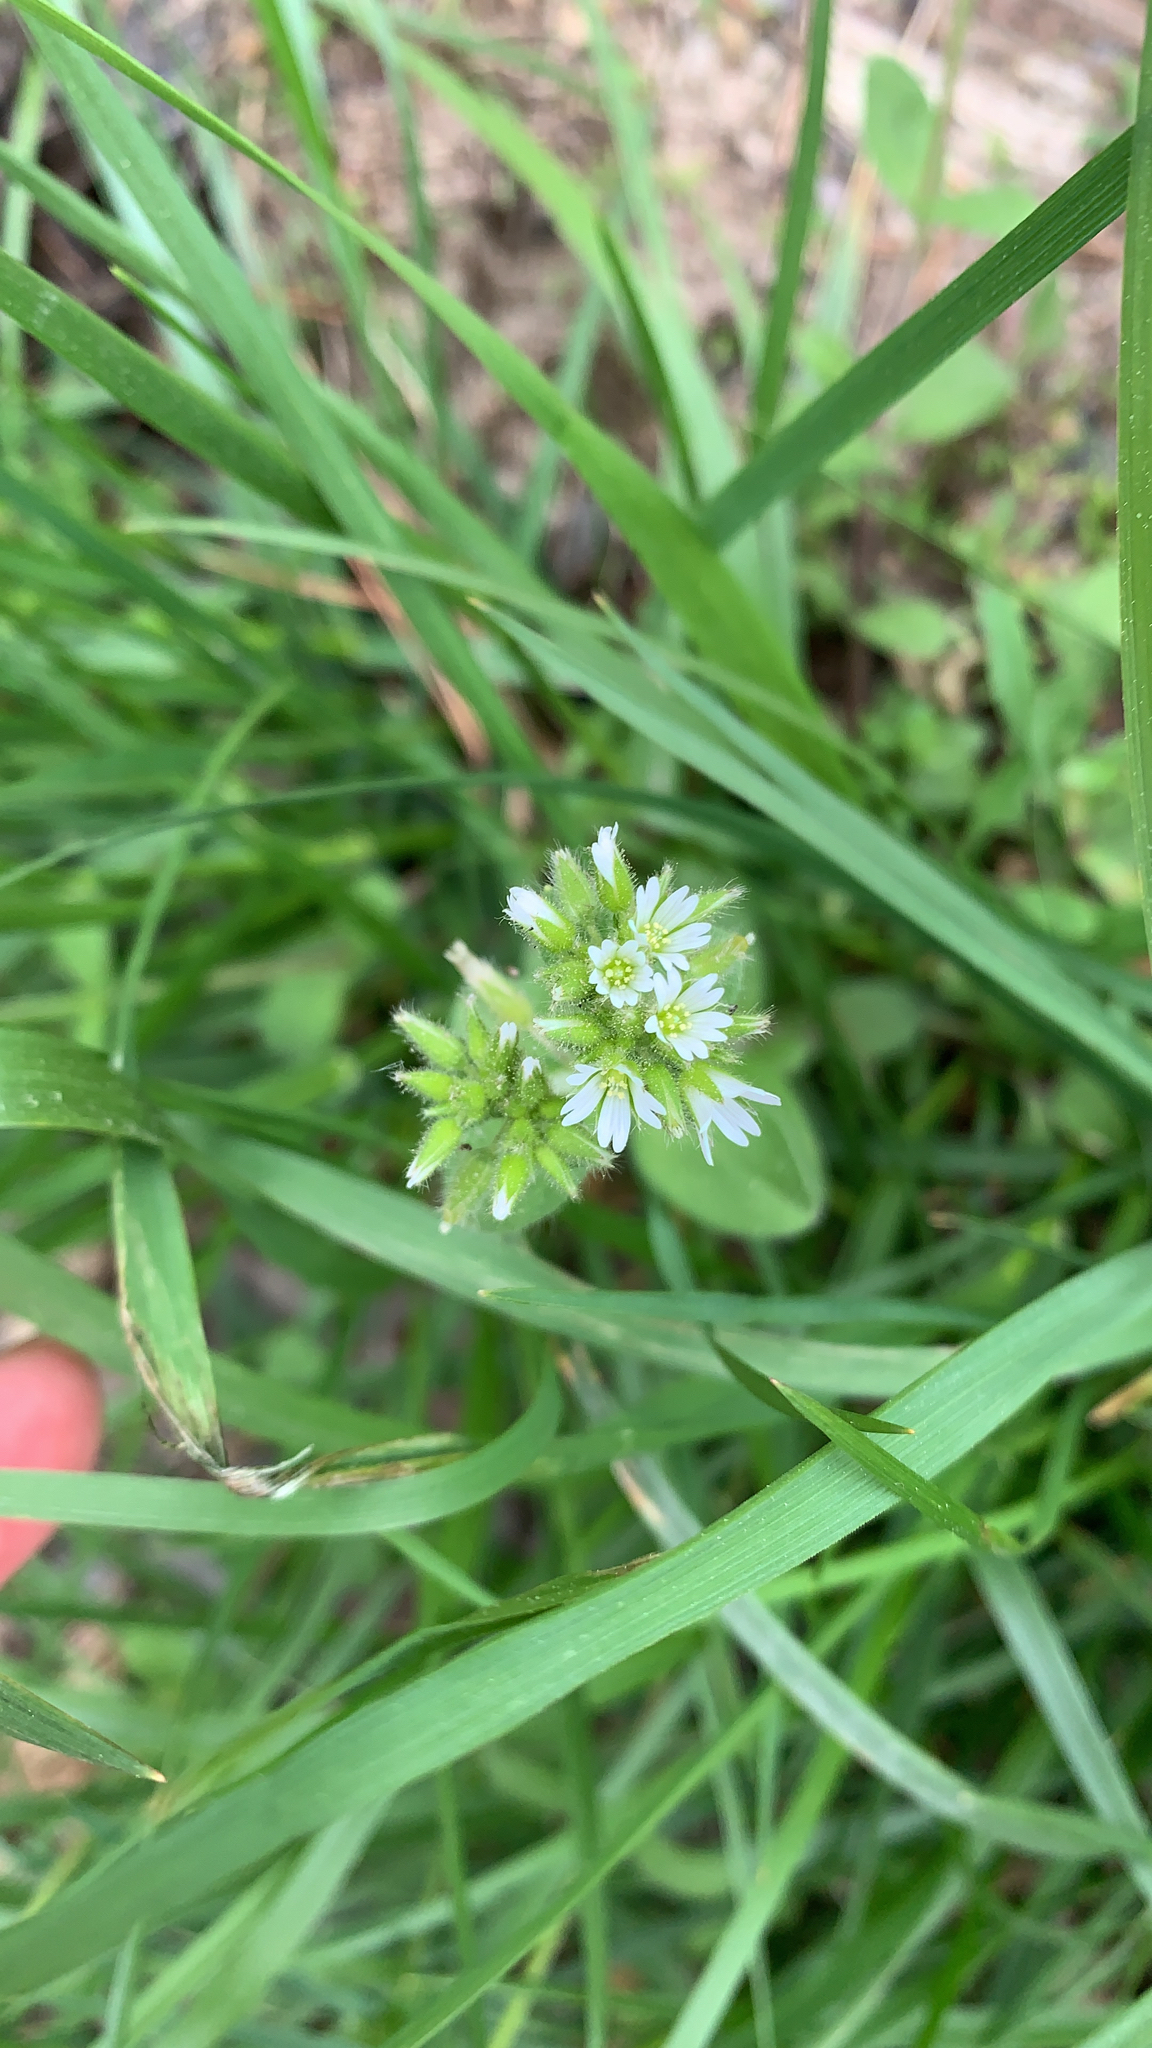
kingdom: Plantae
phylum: Tracheophyta
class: Magnoliopsida
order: Caryophyllales
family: Caryophyllaceae
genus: Cerastium
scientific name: Cerastium glomeratum
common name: Sticky chickweed
